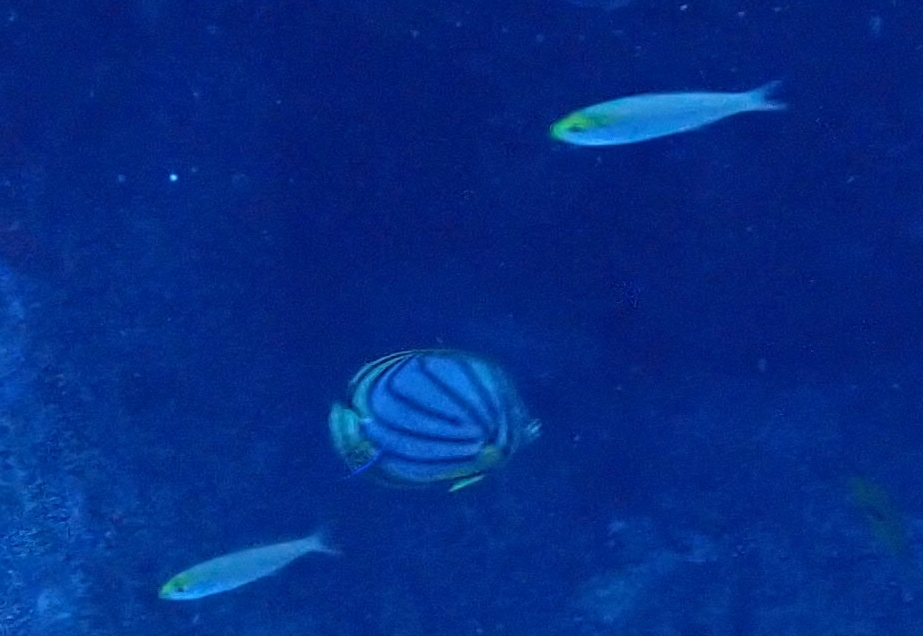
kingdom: Animalia
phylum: Chordata
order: Perciformes
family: Caesionidae
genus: Pterocaesio
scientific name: Pterocaesio pisang
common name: Banana fusilier
